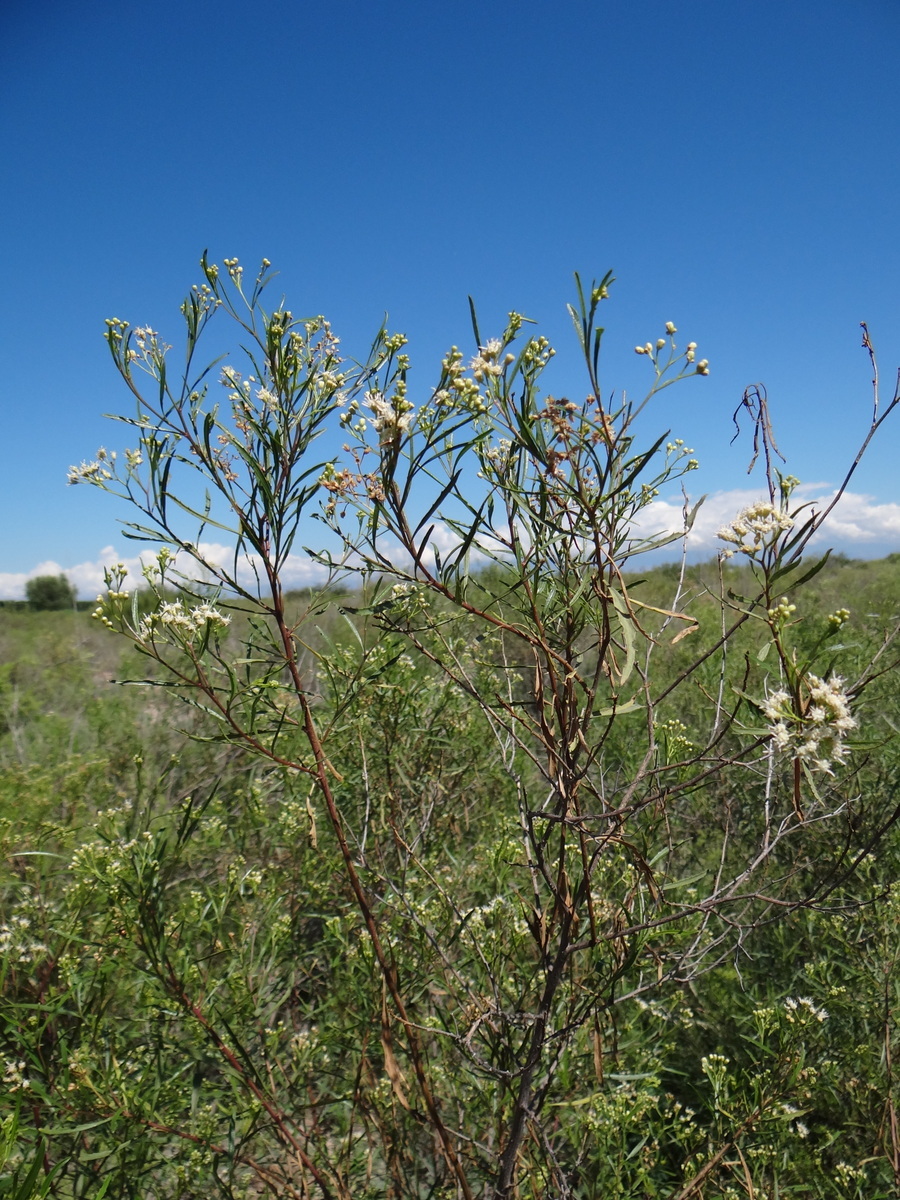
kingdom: Plantae
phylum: Tracheophyta
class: Magnoliopsida
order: Asterales
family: Asteraceae
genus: Baccharis
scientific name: Baccharis salicifolia
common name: Sticky baccharis
